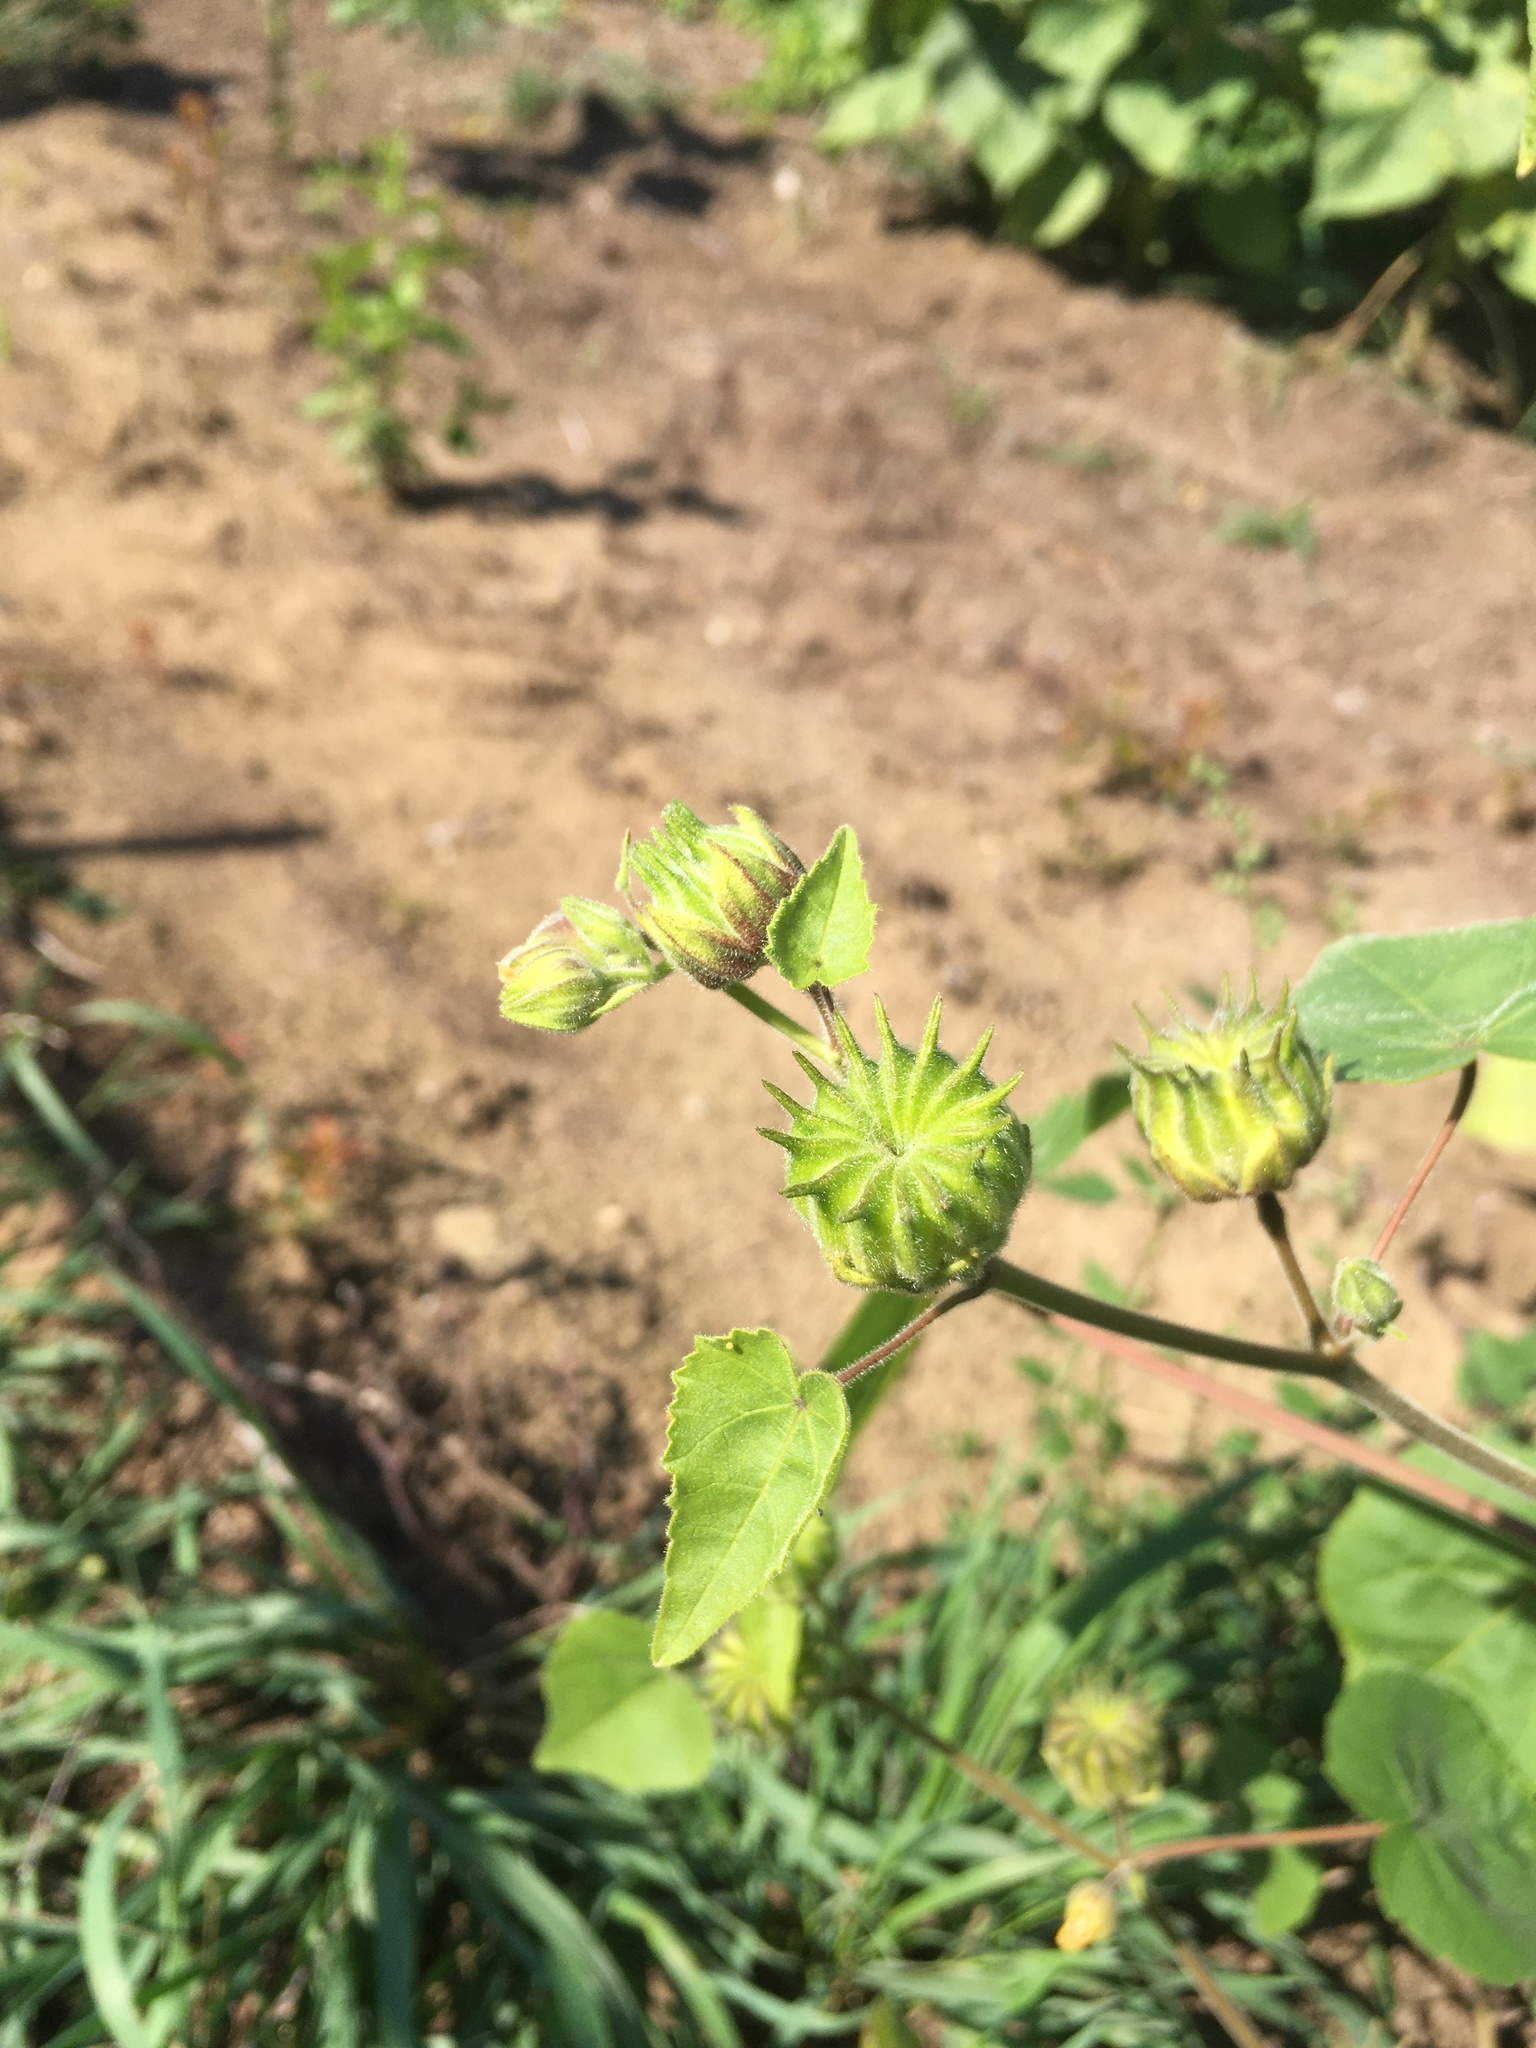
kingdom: Plantae
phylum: Tracheophyta
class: Magnoliopsida
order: Malvales
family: Malvaceae
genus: Abutilon
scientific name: Abutilon theophrasti
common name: Velvetleaf
